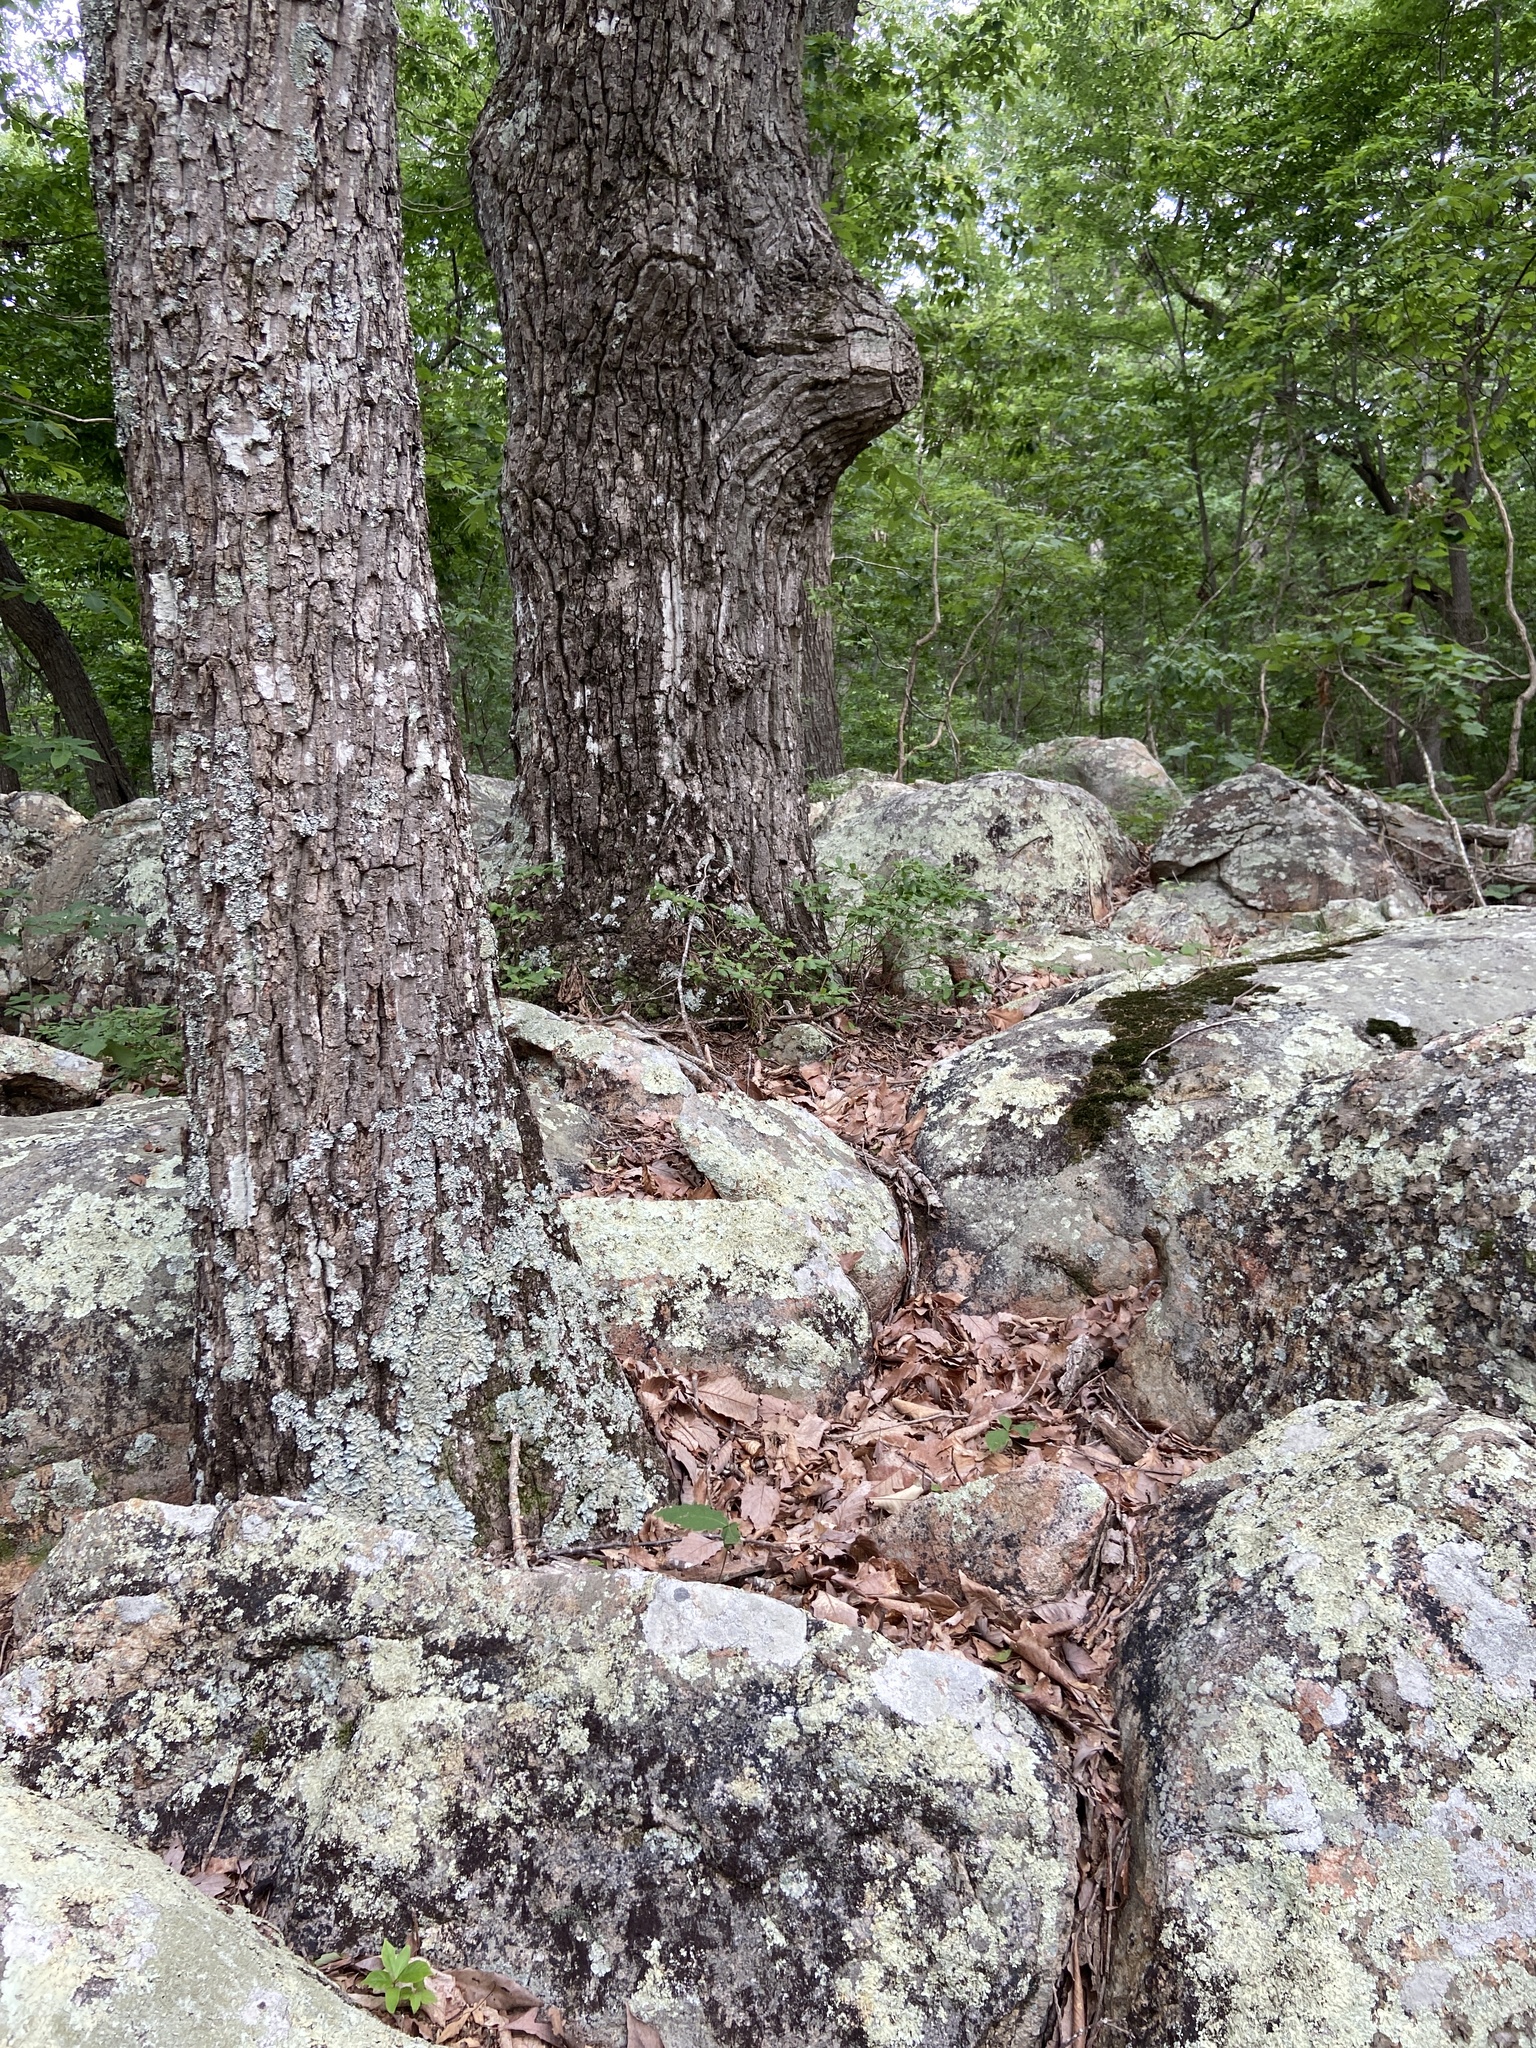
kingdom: Plantae
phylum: Tracheophyta
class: Magnoliopsida
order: Fagales
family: Fagaceae
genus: Quercus
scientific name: Quercus montana
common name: Chestnut oak
